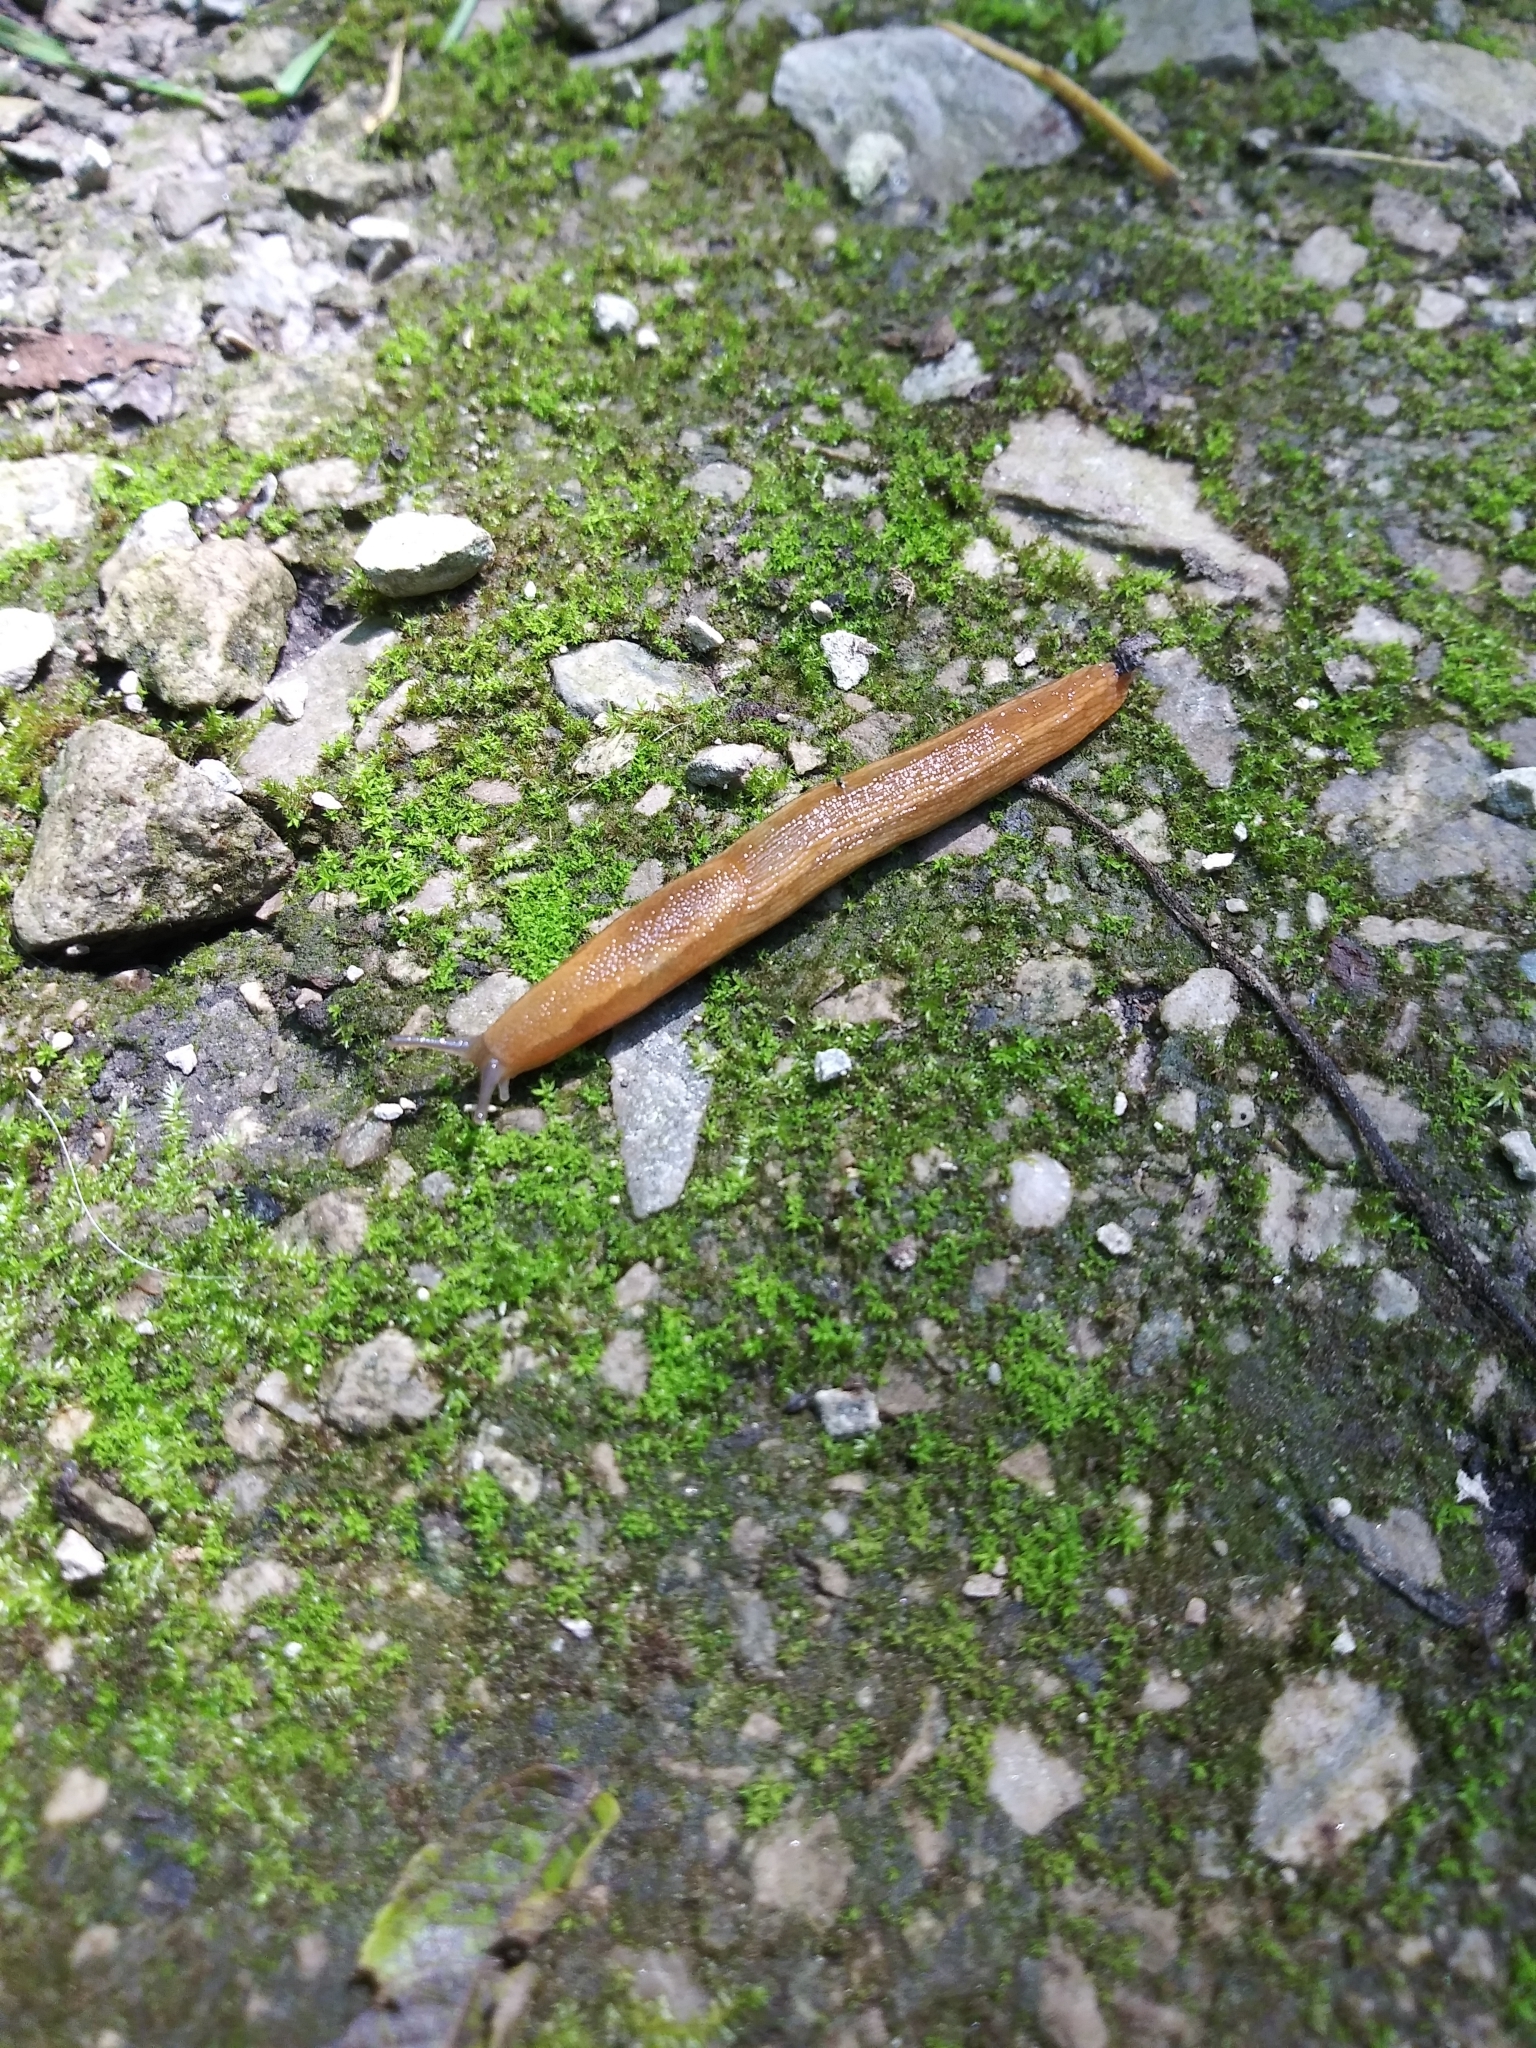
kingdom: Animalia
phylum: Mollusca
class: Gastropoda
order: Stylommatophora
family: Arionidae
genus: Arion
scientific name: Arion subfuscus
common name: Dusky arion
